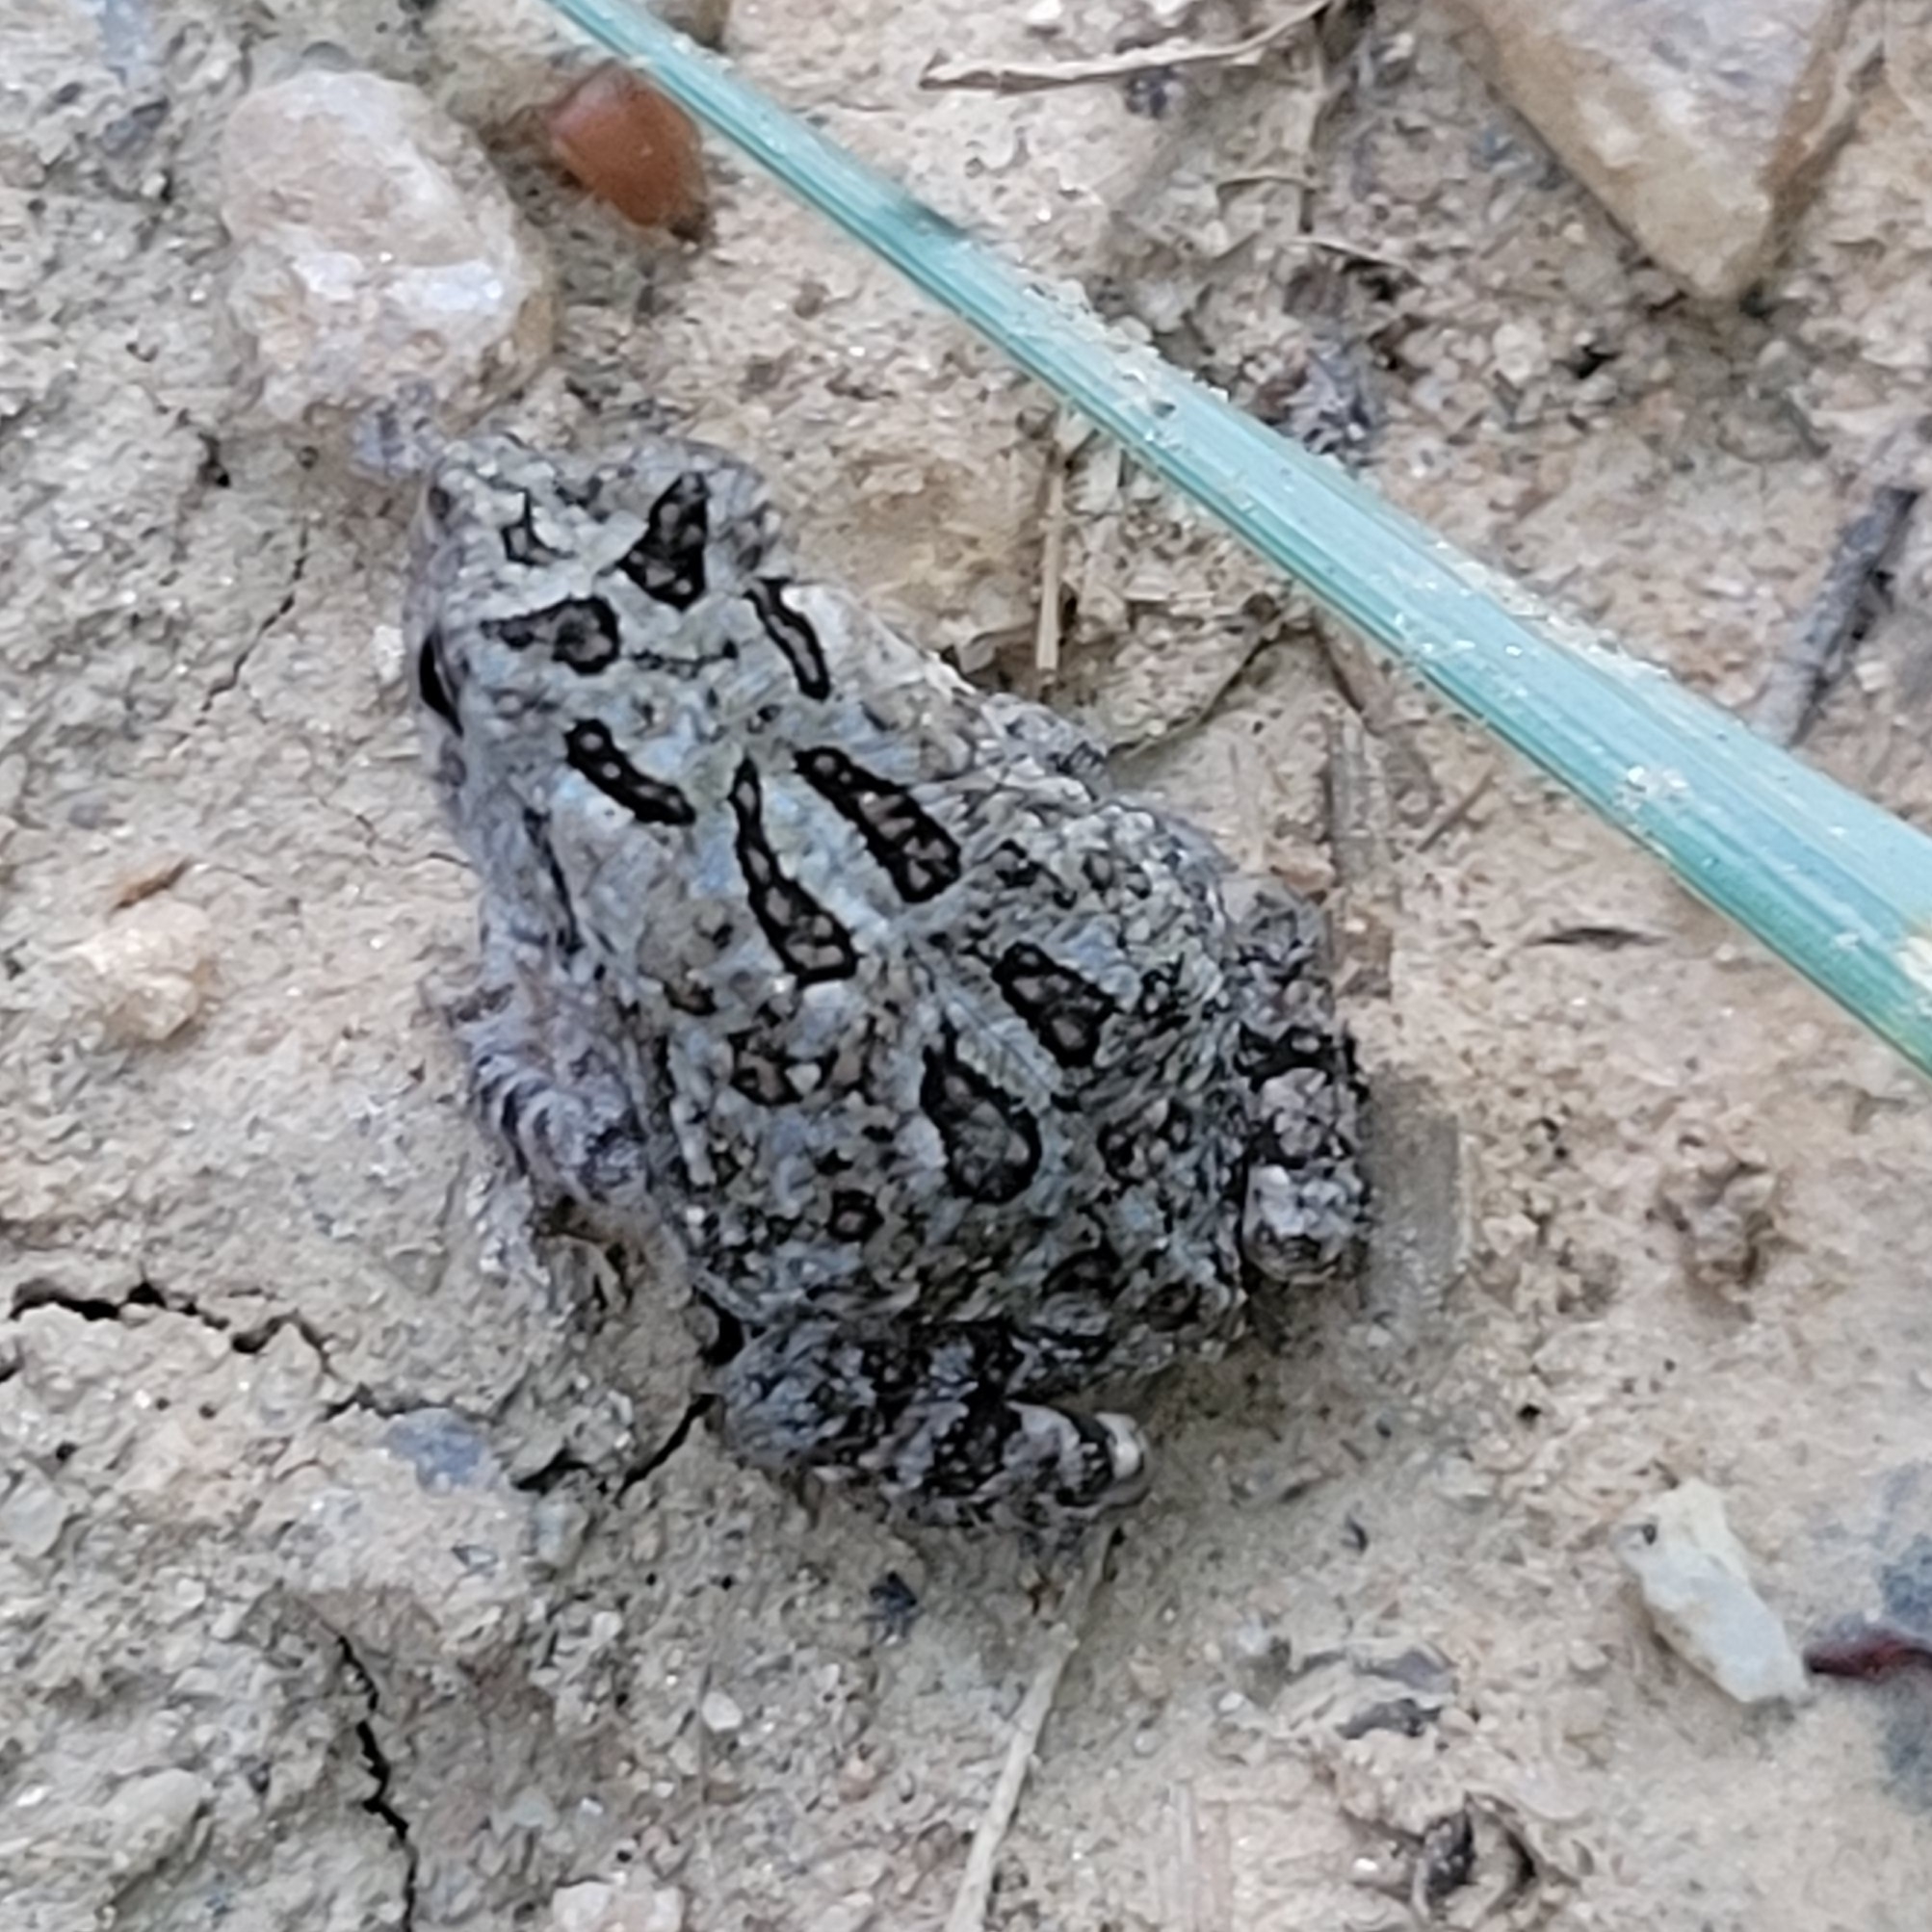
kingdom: Animalia
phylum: Chordata
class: Amphibia
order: Anura
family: Bufonidae
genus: Anaxyrus
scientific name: Anaxyrus fowleri
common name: Fowler's toad
